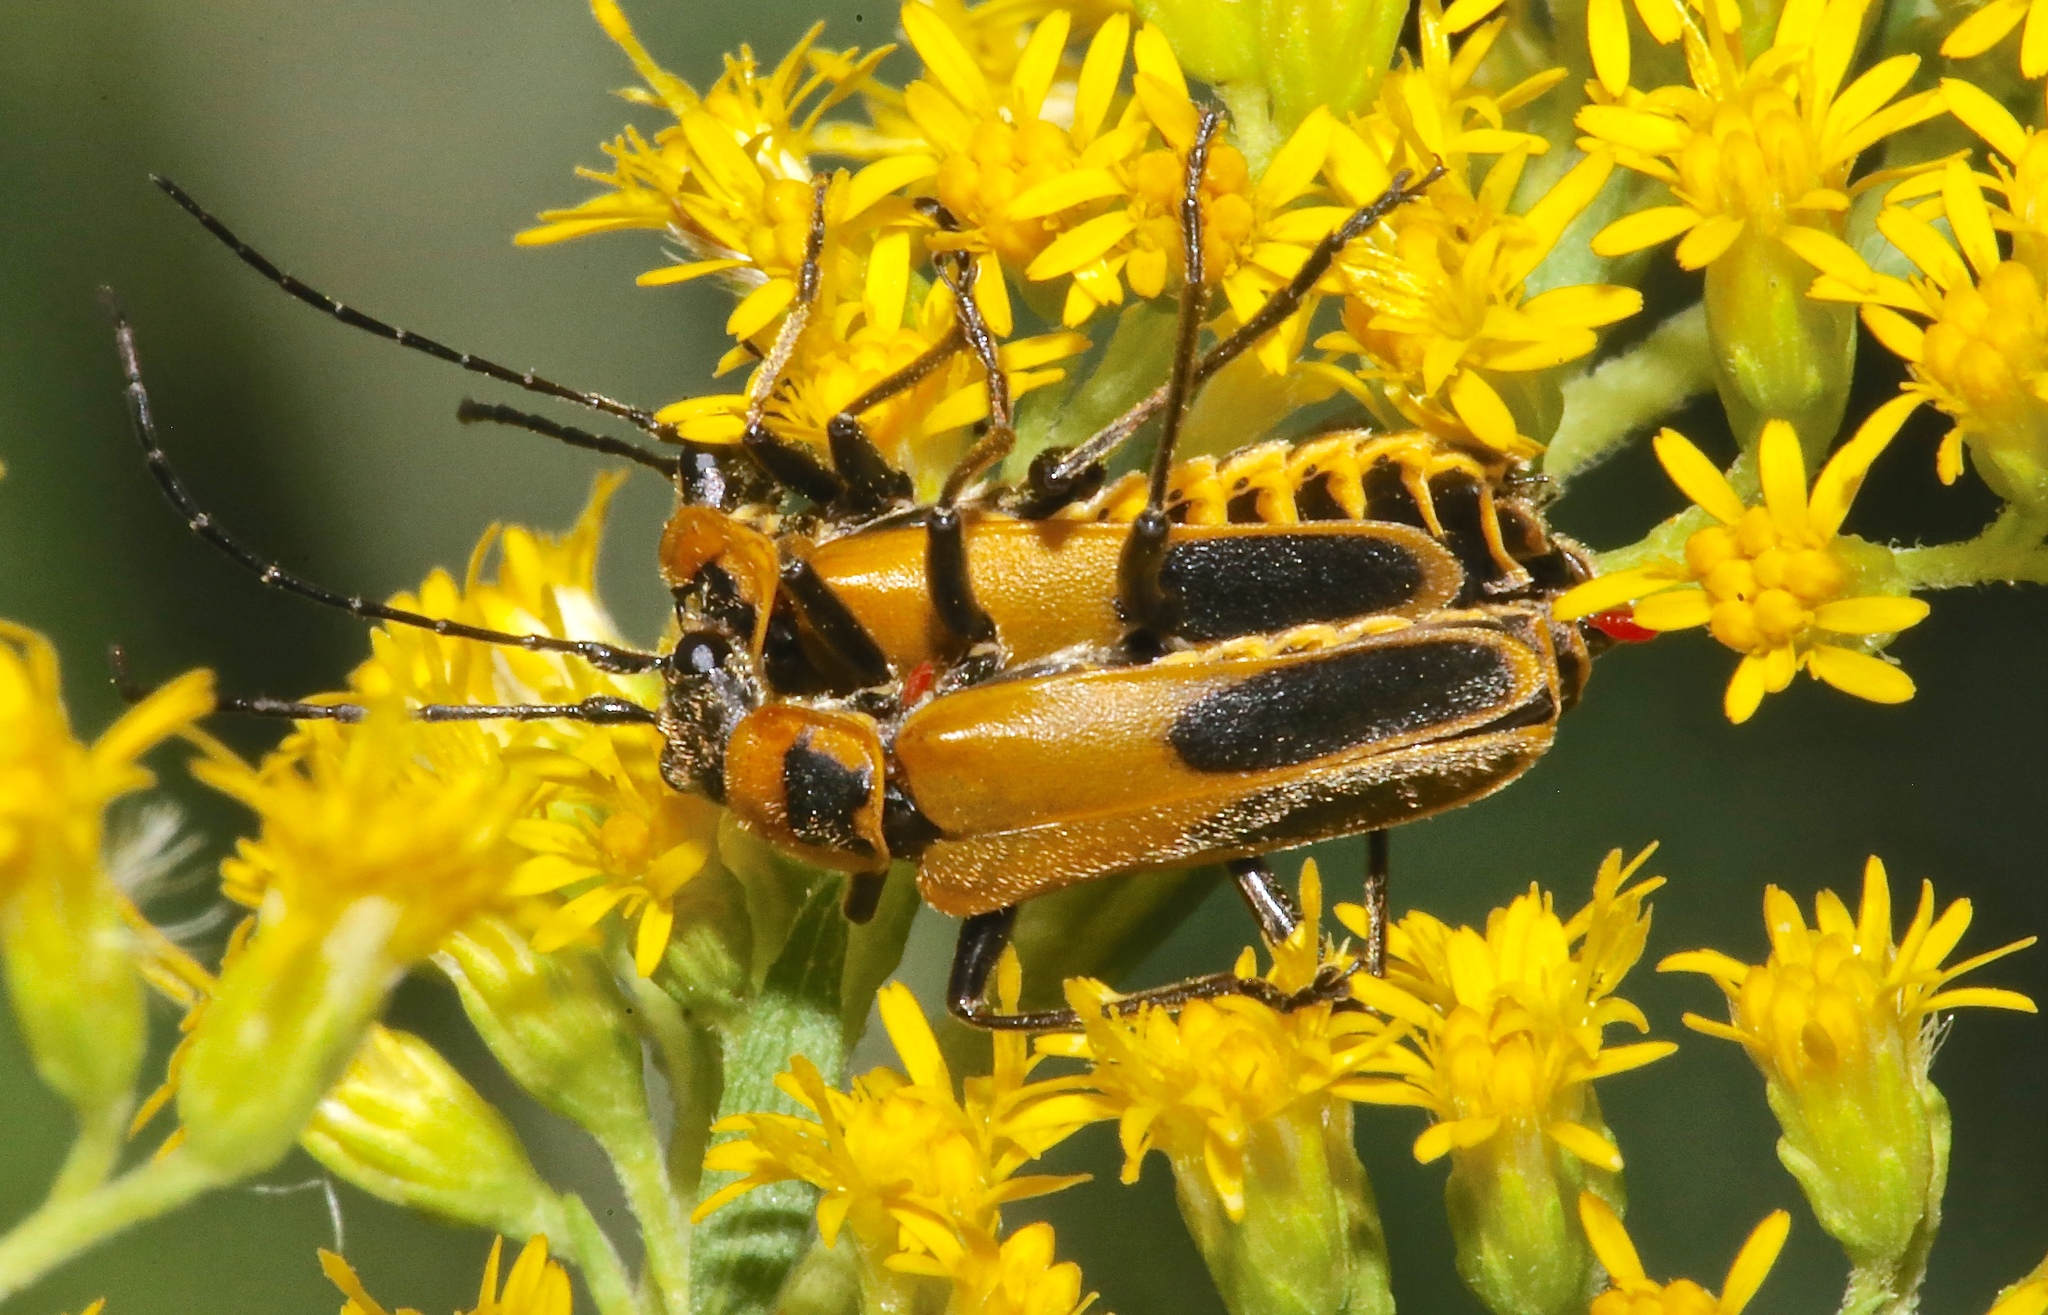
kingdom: Animalia
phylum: Arthropoda
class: Insecta
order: Coleoptera
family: Cantharidae
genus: Chauliognathus
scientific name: Chauliognathus pensylvanicus
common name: Goldenrod soldier beetle
